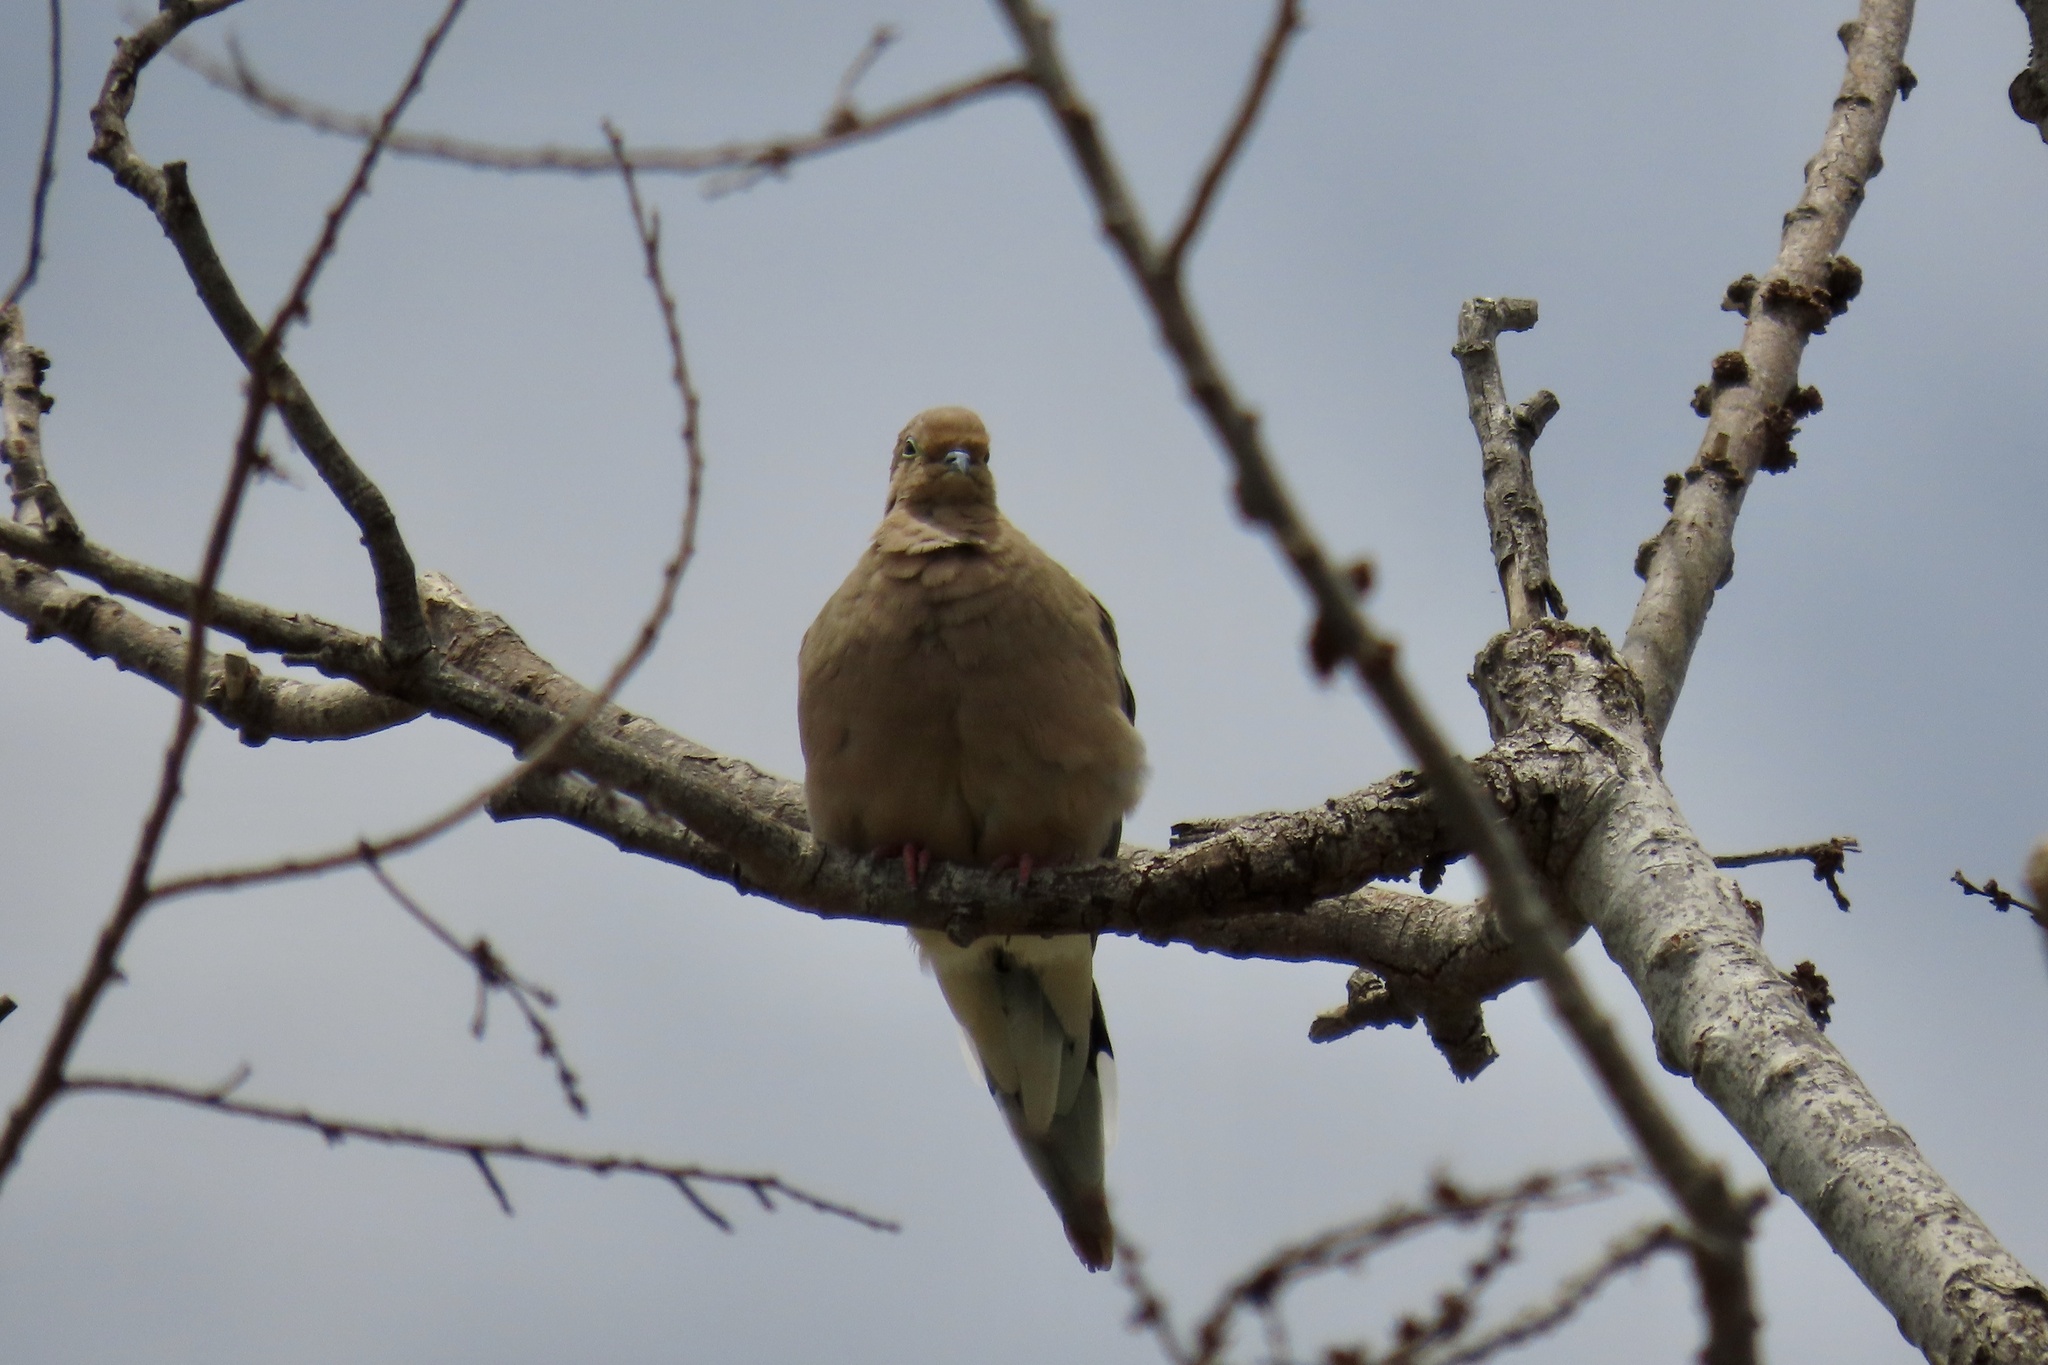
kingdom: Animalia
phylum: Chordata
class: Aves
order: Columbiformes
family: Columbidae
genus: Zenaida
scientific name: Zenaida macroura
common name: Mourning dove
